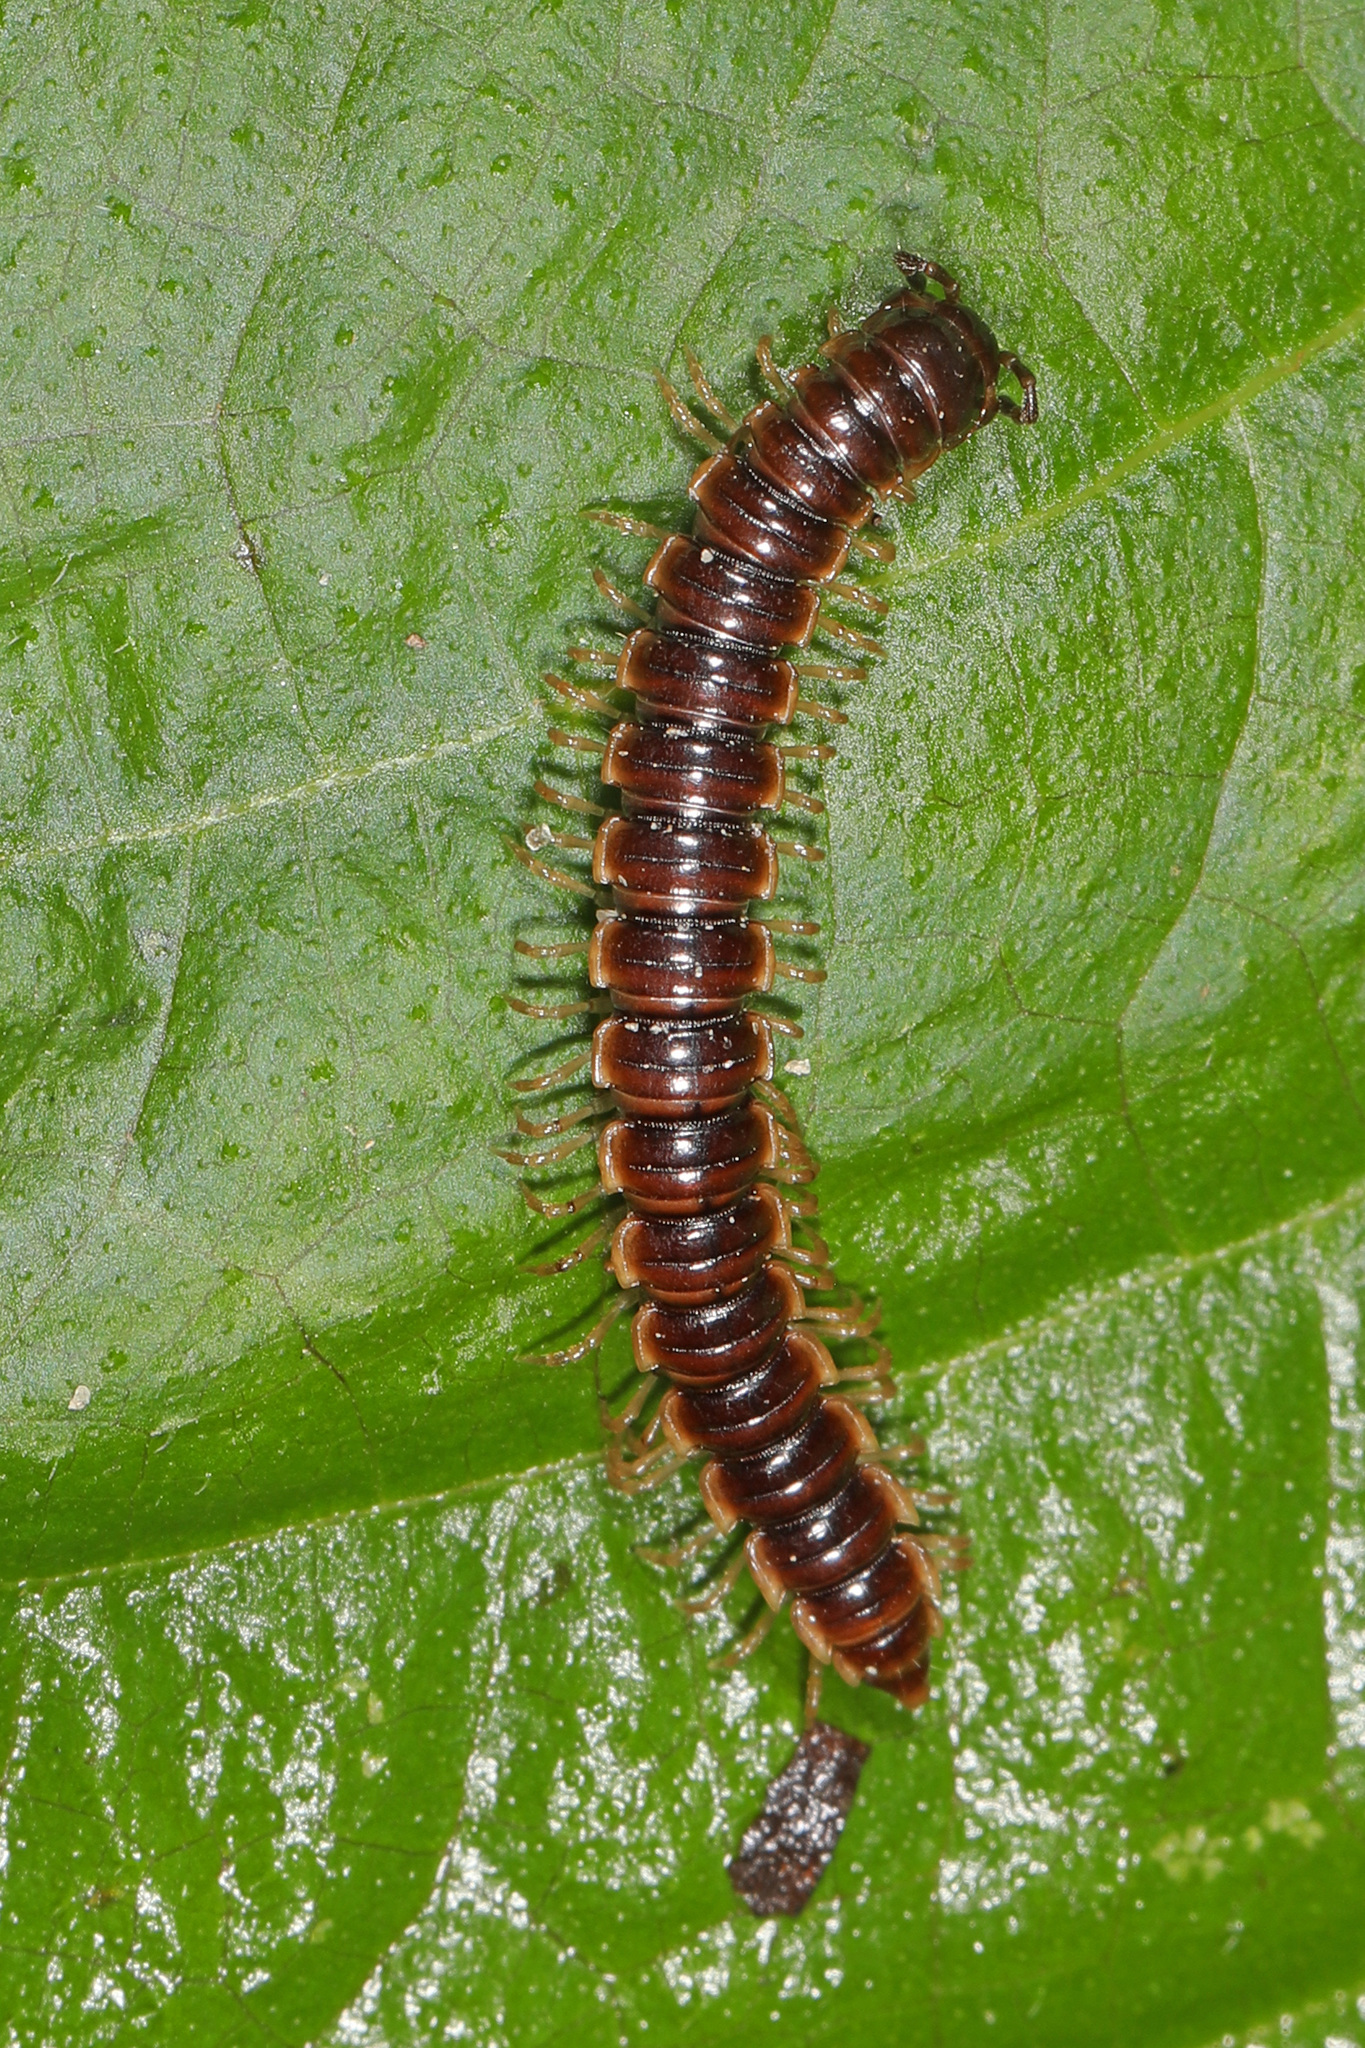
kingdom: Animalia
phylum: Arthropoda
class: Diplopoda
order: Polydesmida
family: Paradoxosomatidae
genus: Oxidus
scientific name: Oxidus gracilis
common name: Greenhouse millipede
